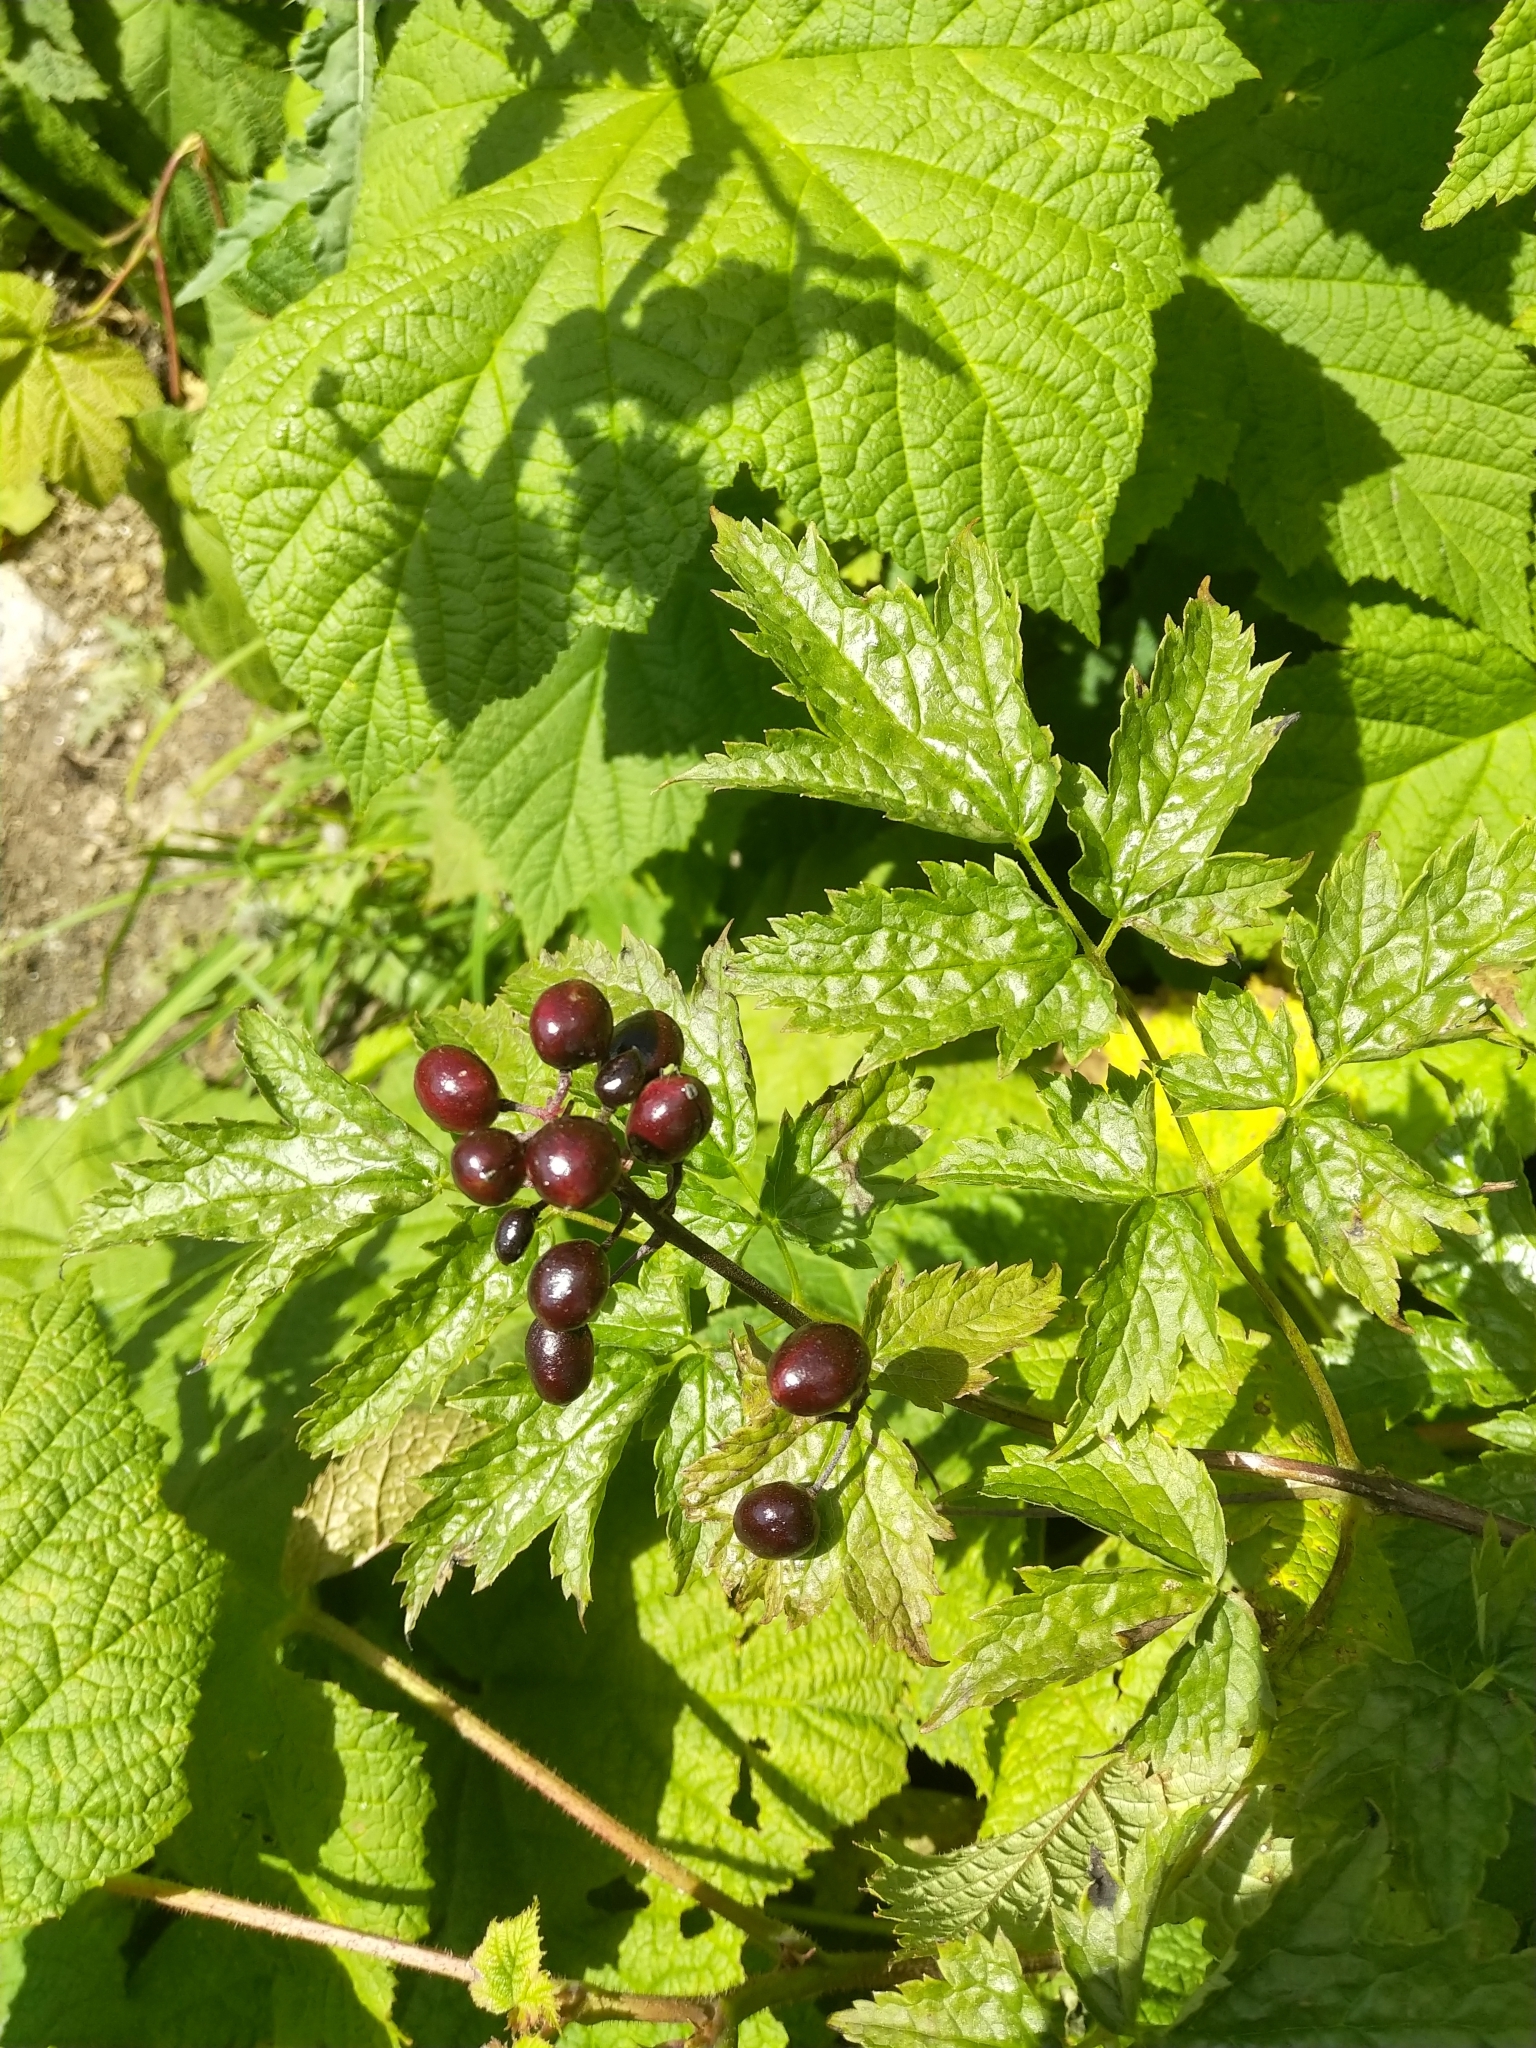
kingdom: Plantae
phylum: Tracheophyta
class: Magnoliopsida
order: Ranunculales
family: Ranunculaceae
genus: Actaea
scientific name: Actaea rubra
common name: Red baneberry
